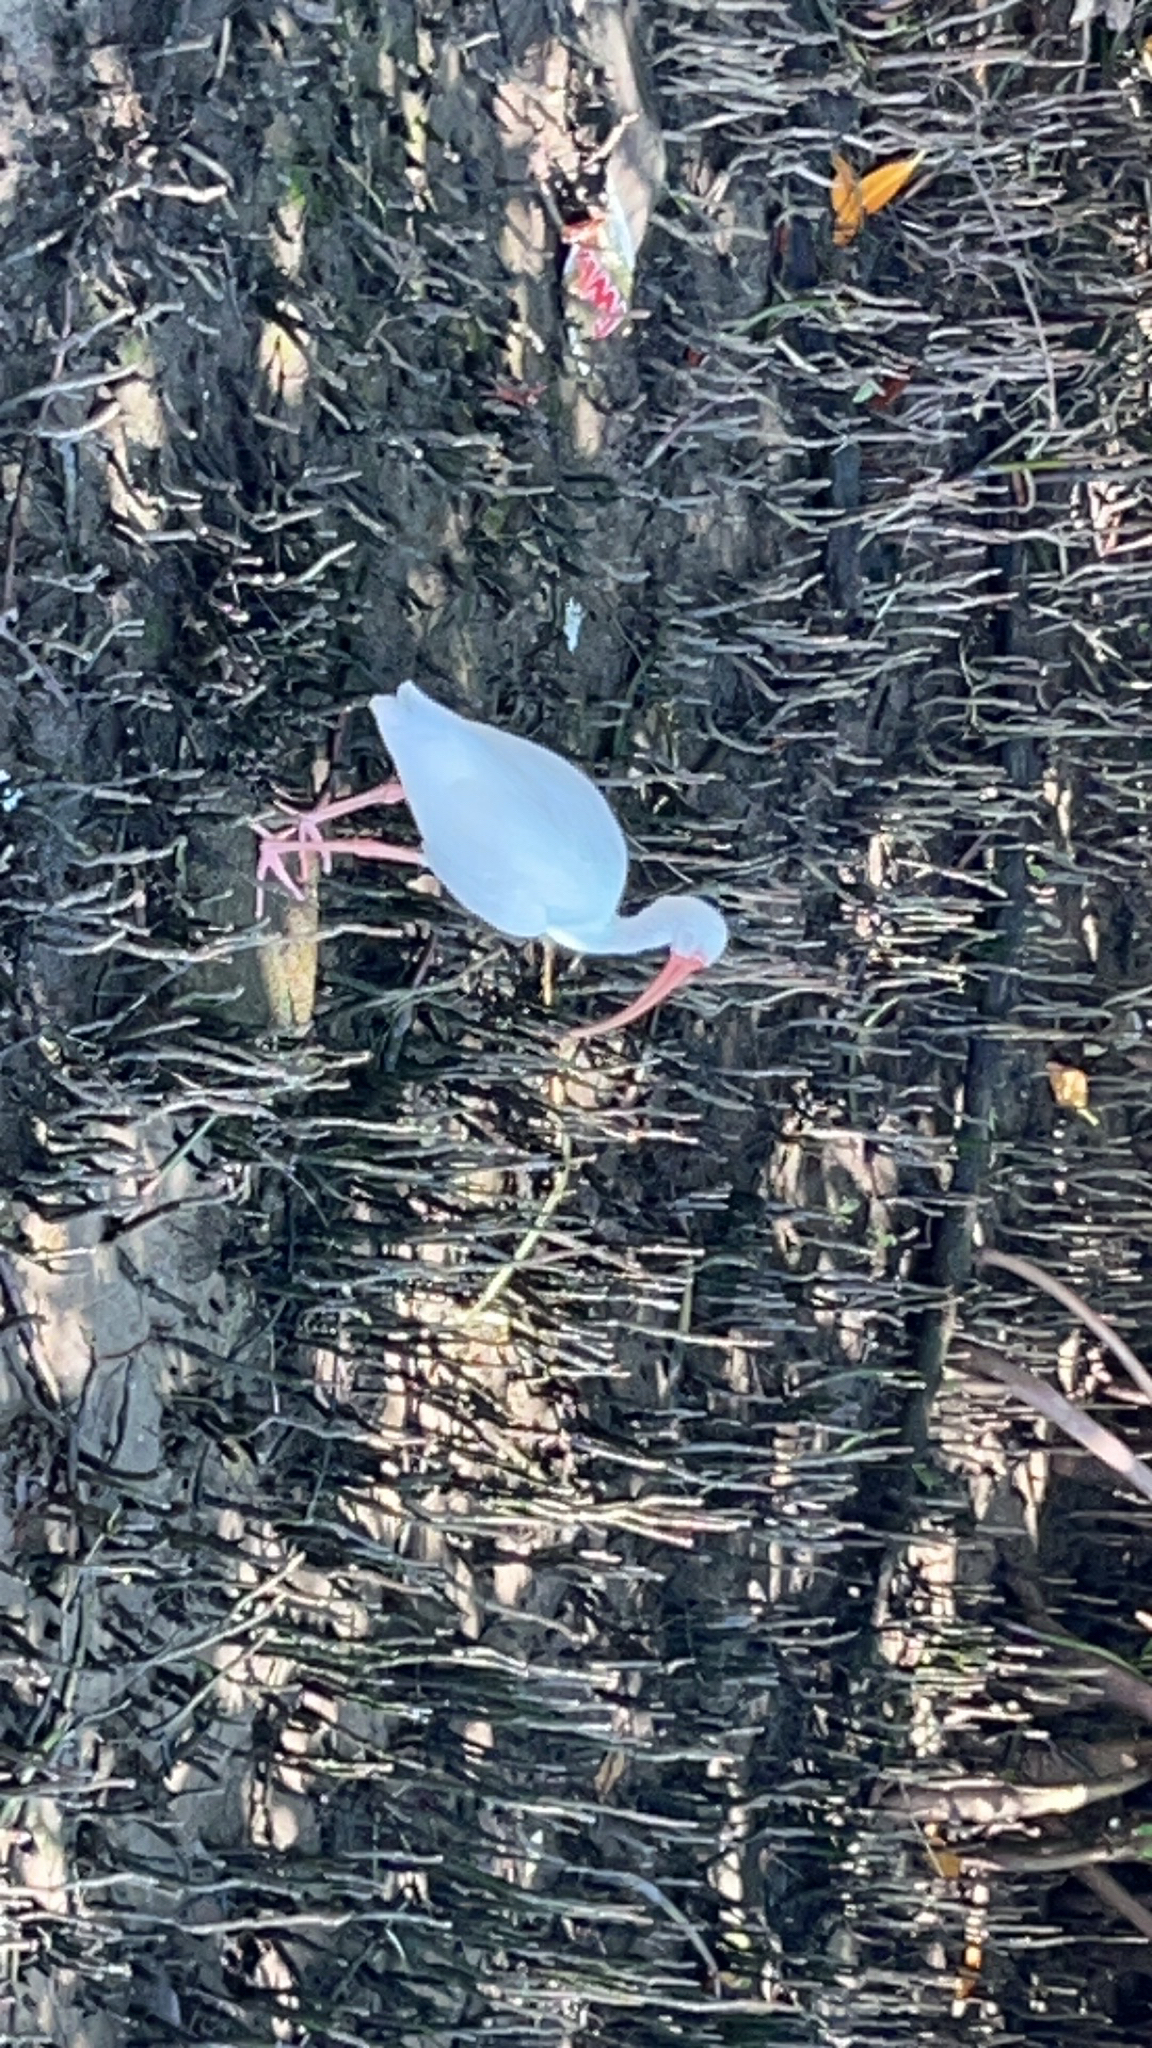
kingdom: Animalia
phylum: Chordata
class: Aves
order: Pelecaniformes
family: Threskiornithidae
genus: Eudocimus
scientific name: Eudocimus albus
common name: White ibis
